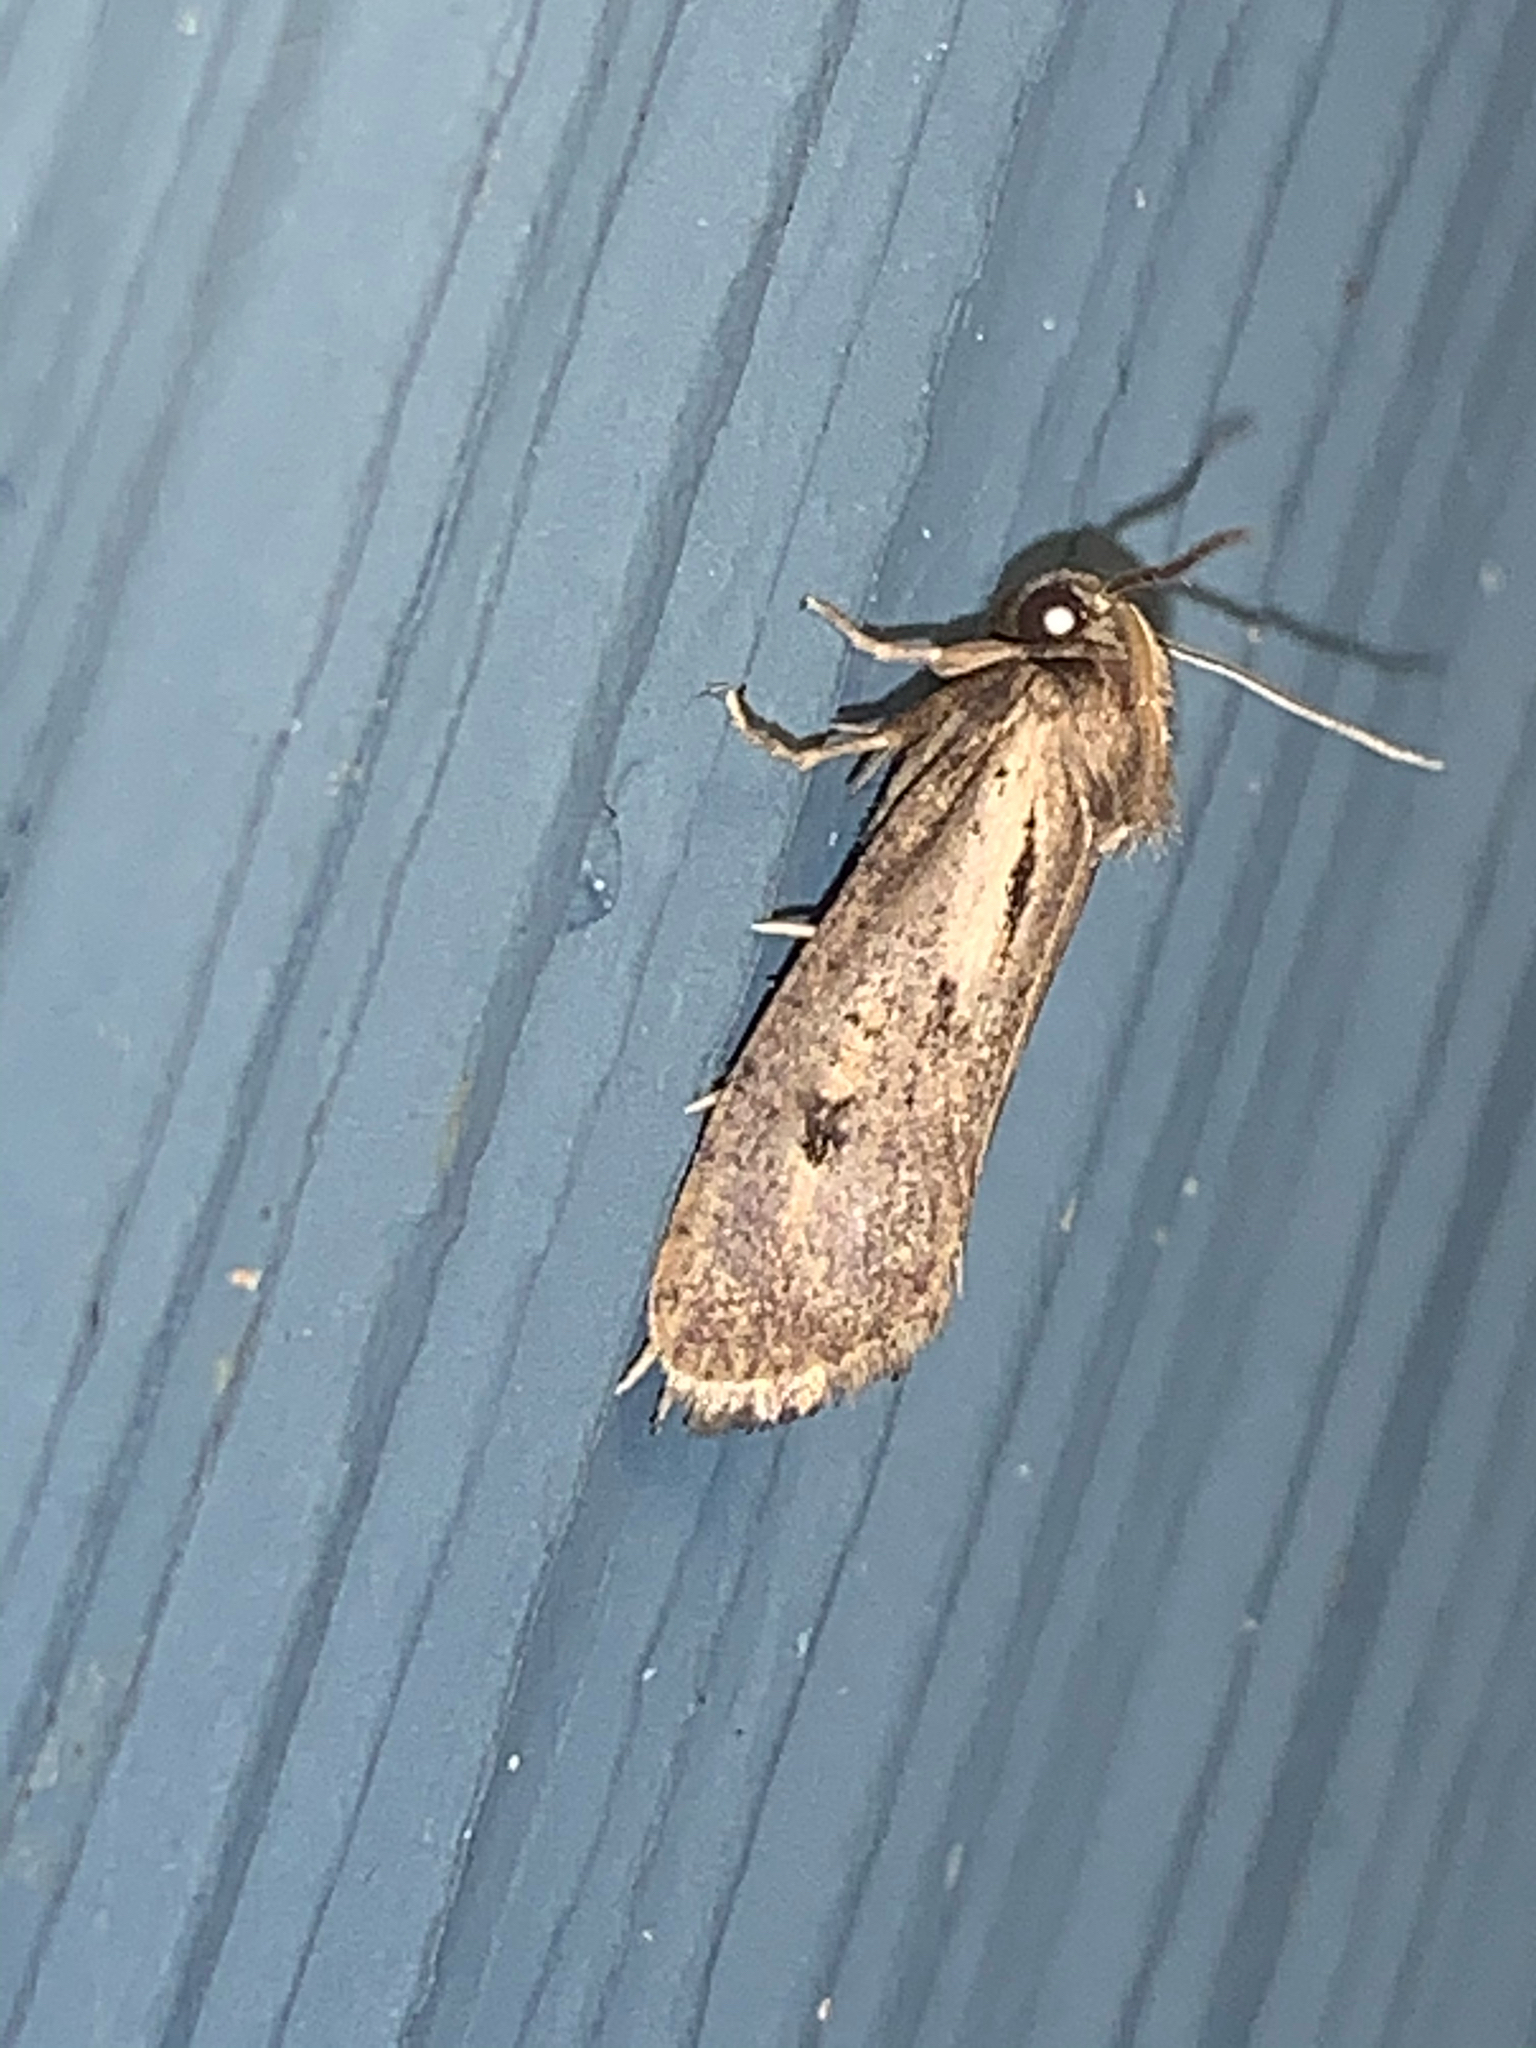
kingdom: Animalia
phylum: Arthropoda
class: Insecta
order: Lepidoptera
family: Tineidae
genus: Acrolophus
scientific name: Acrolophus popeanella
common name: Clemens' grass tubeworm moth
